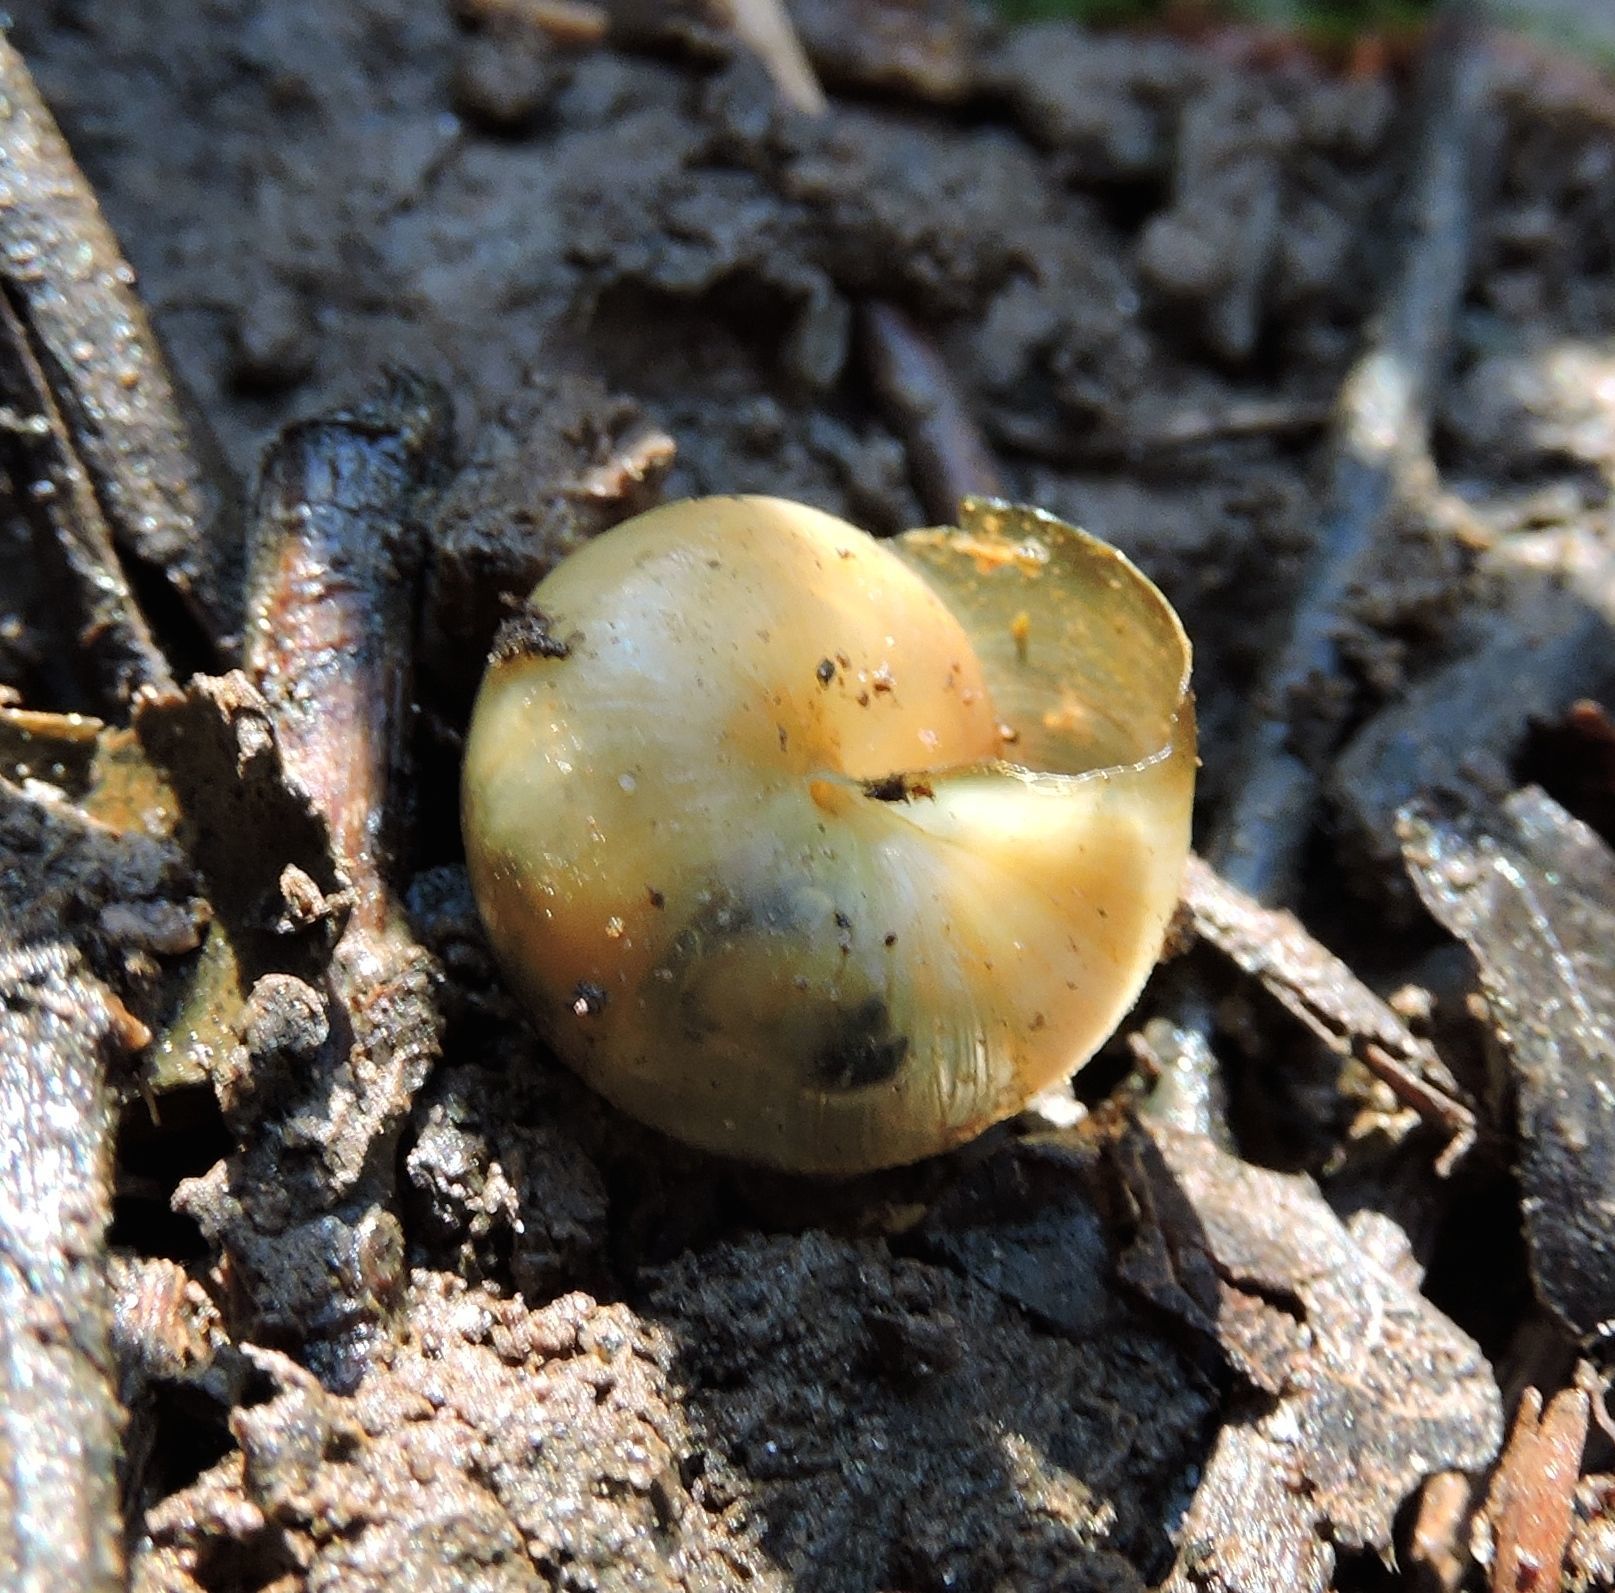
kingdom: Animalia
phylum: Mollusca
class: Gastropoda
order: Stylommatophora
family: Gastrodontidae
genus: Ventridens
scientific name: Ventridens ligera
